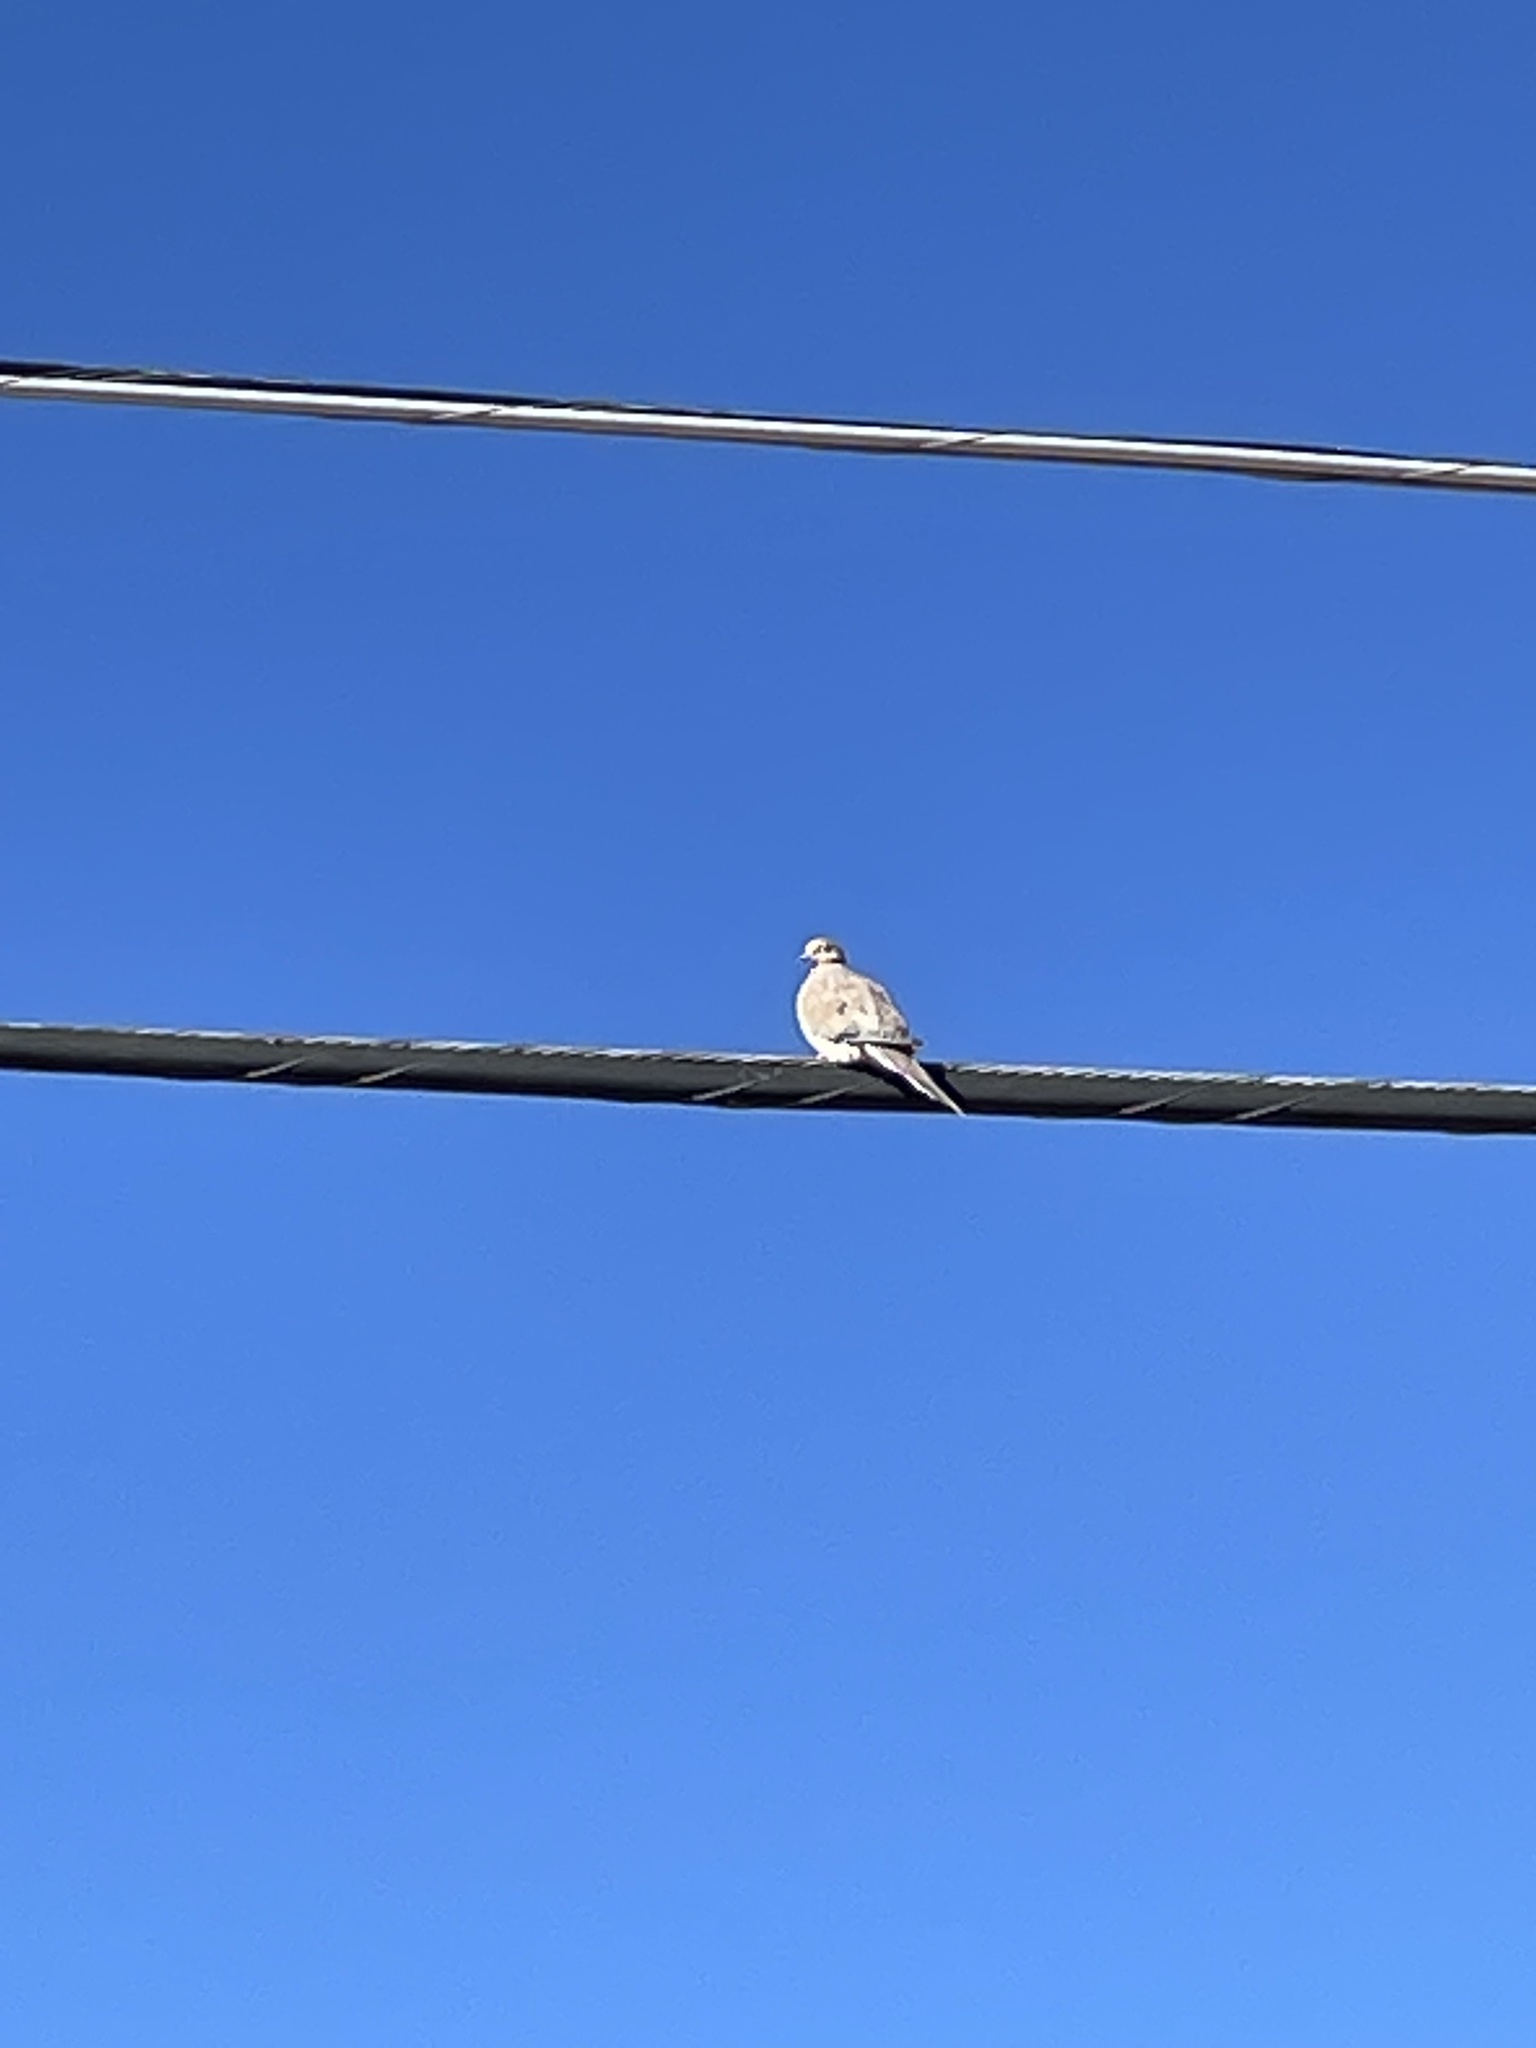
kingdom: Animalia
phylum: Chordata
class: Aves
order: Columbiformes
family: Columbidae
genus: Zenaida
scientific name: Zenaida macroura
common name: Mourning dove
